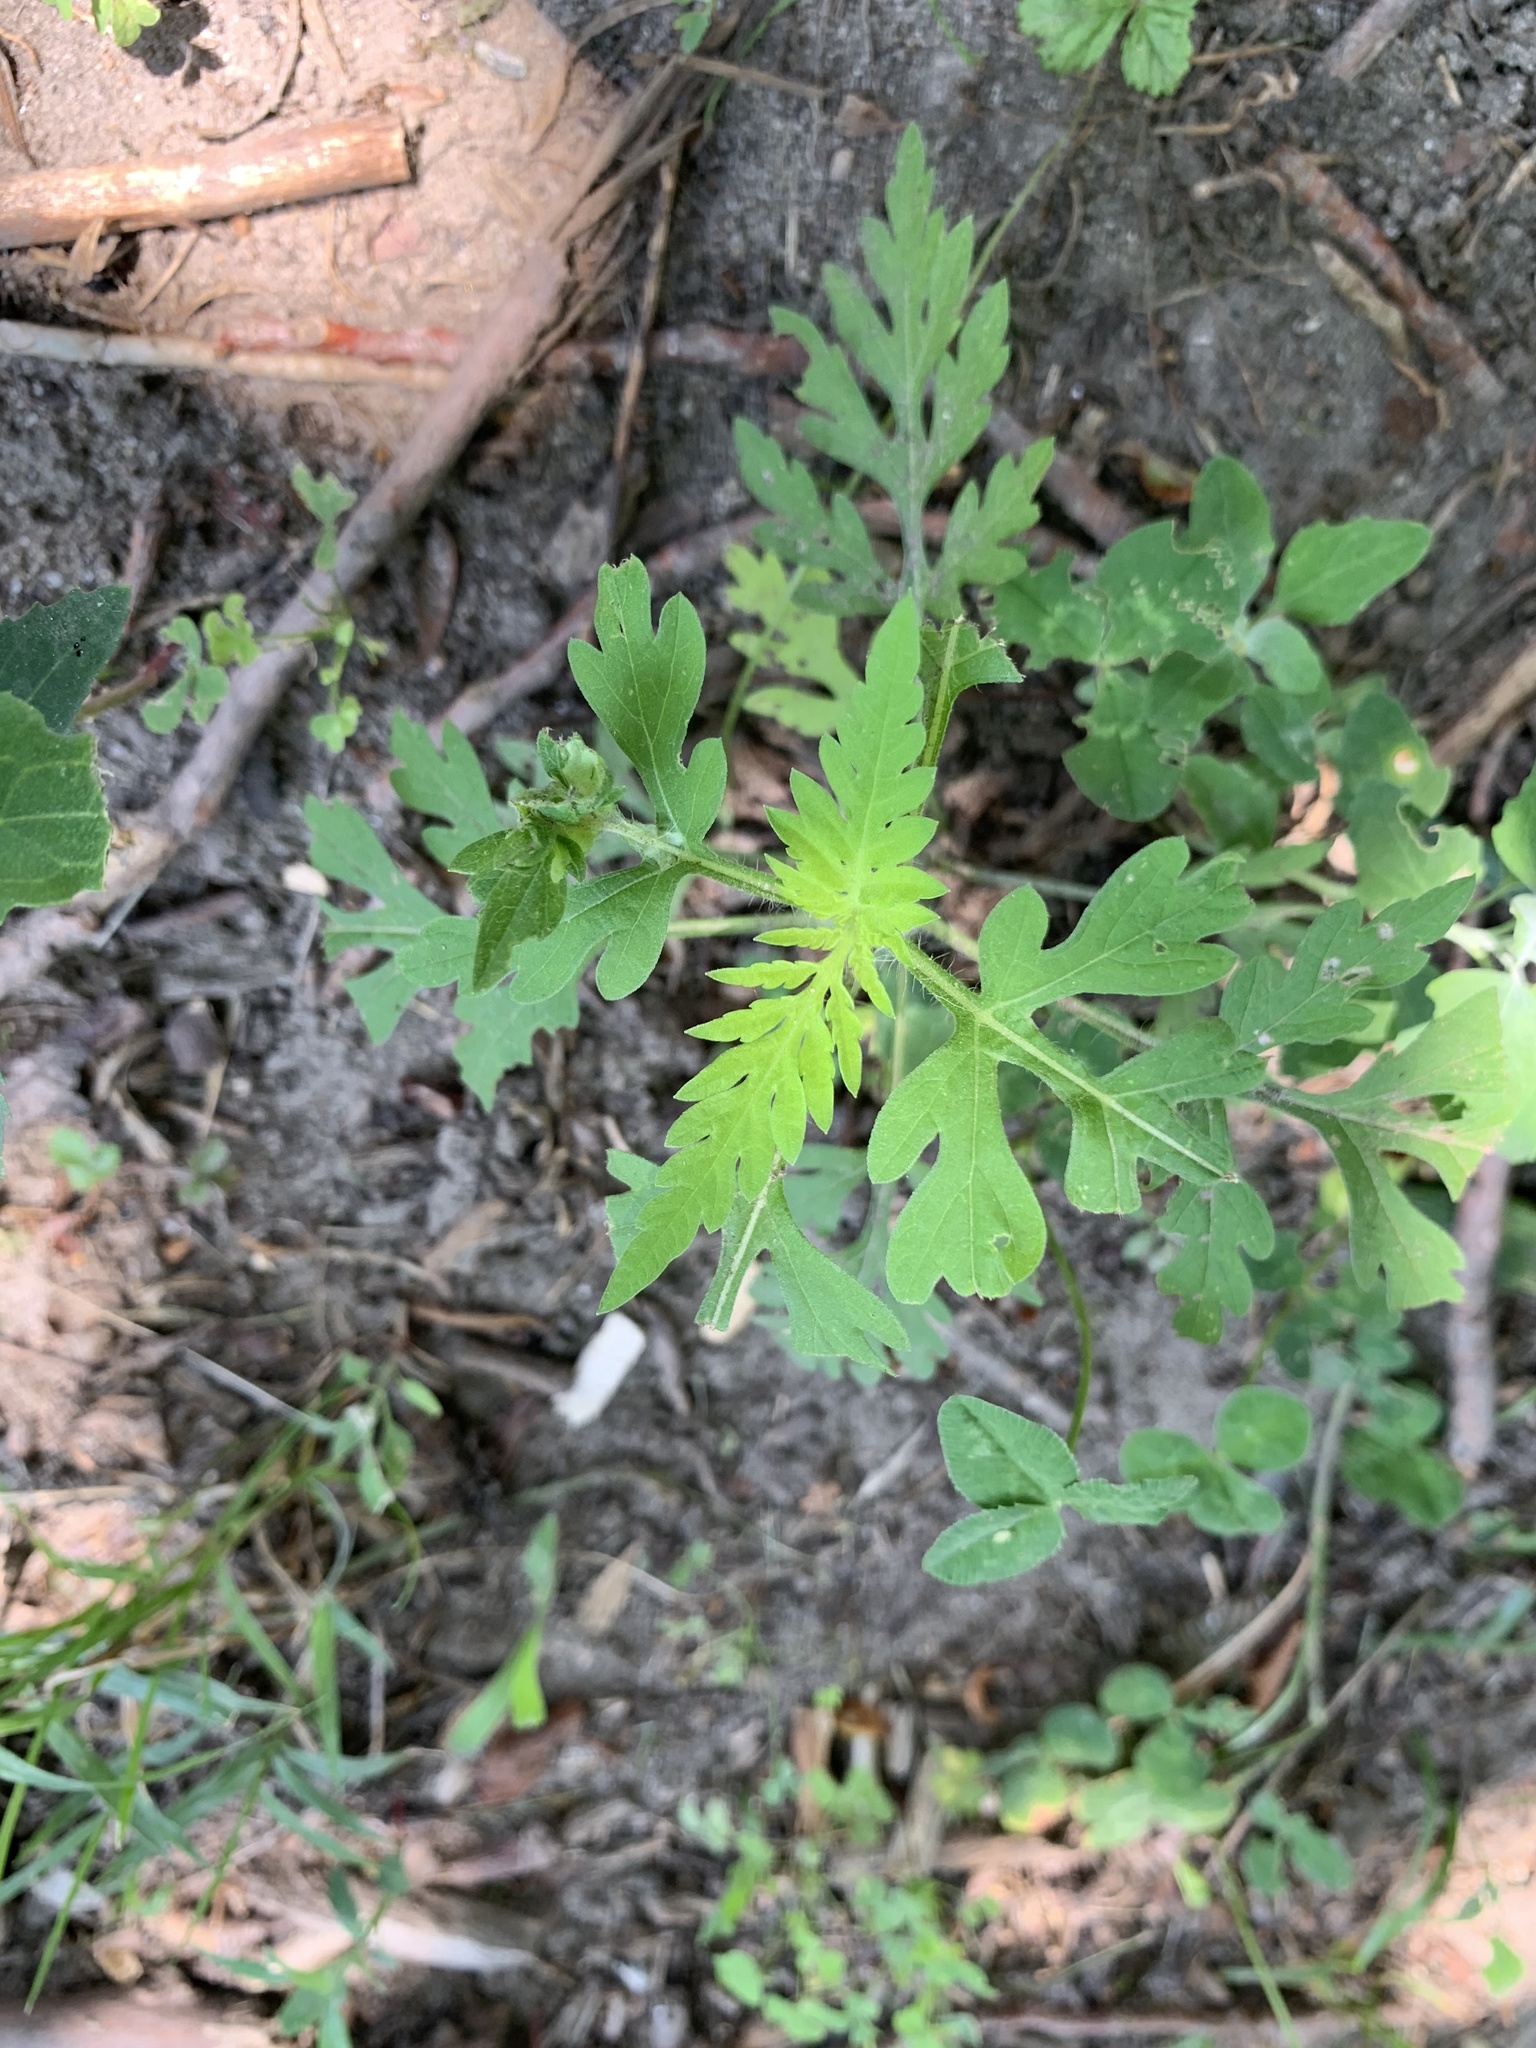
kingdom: Plantae
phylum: Tracheophyta
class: Magnoliopsida
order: Asterales
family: Asteraceae
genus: Ambrosia
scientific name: Ambrosia artemisiifolia
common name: Annual ragweed
